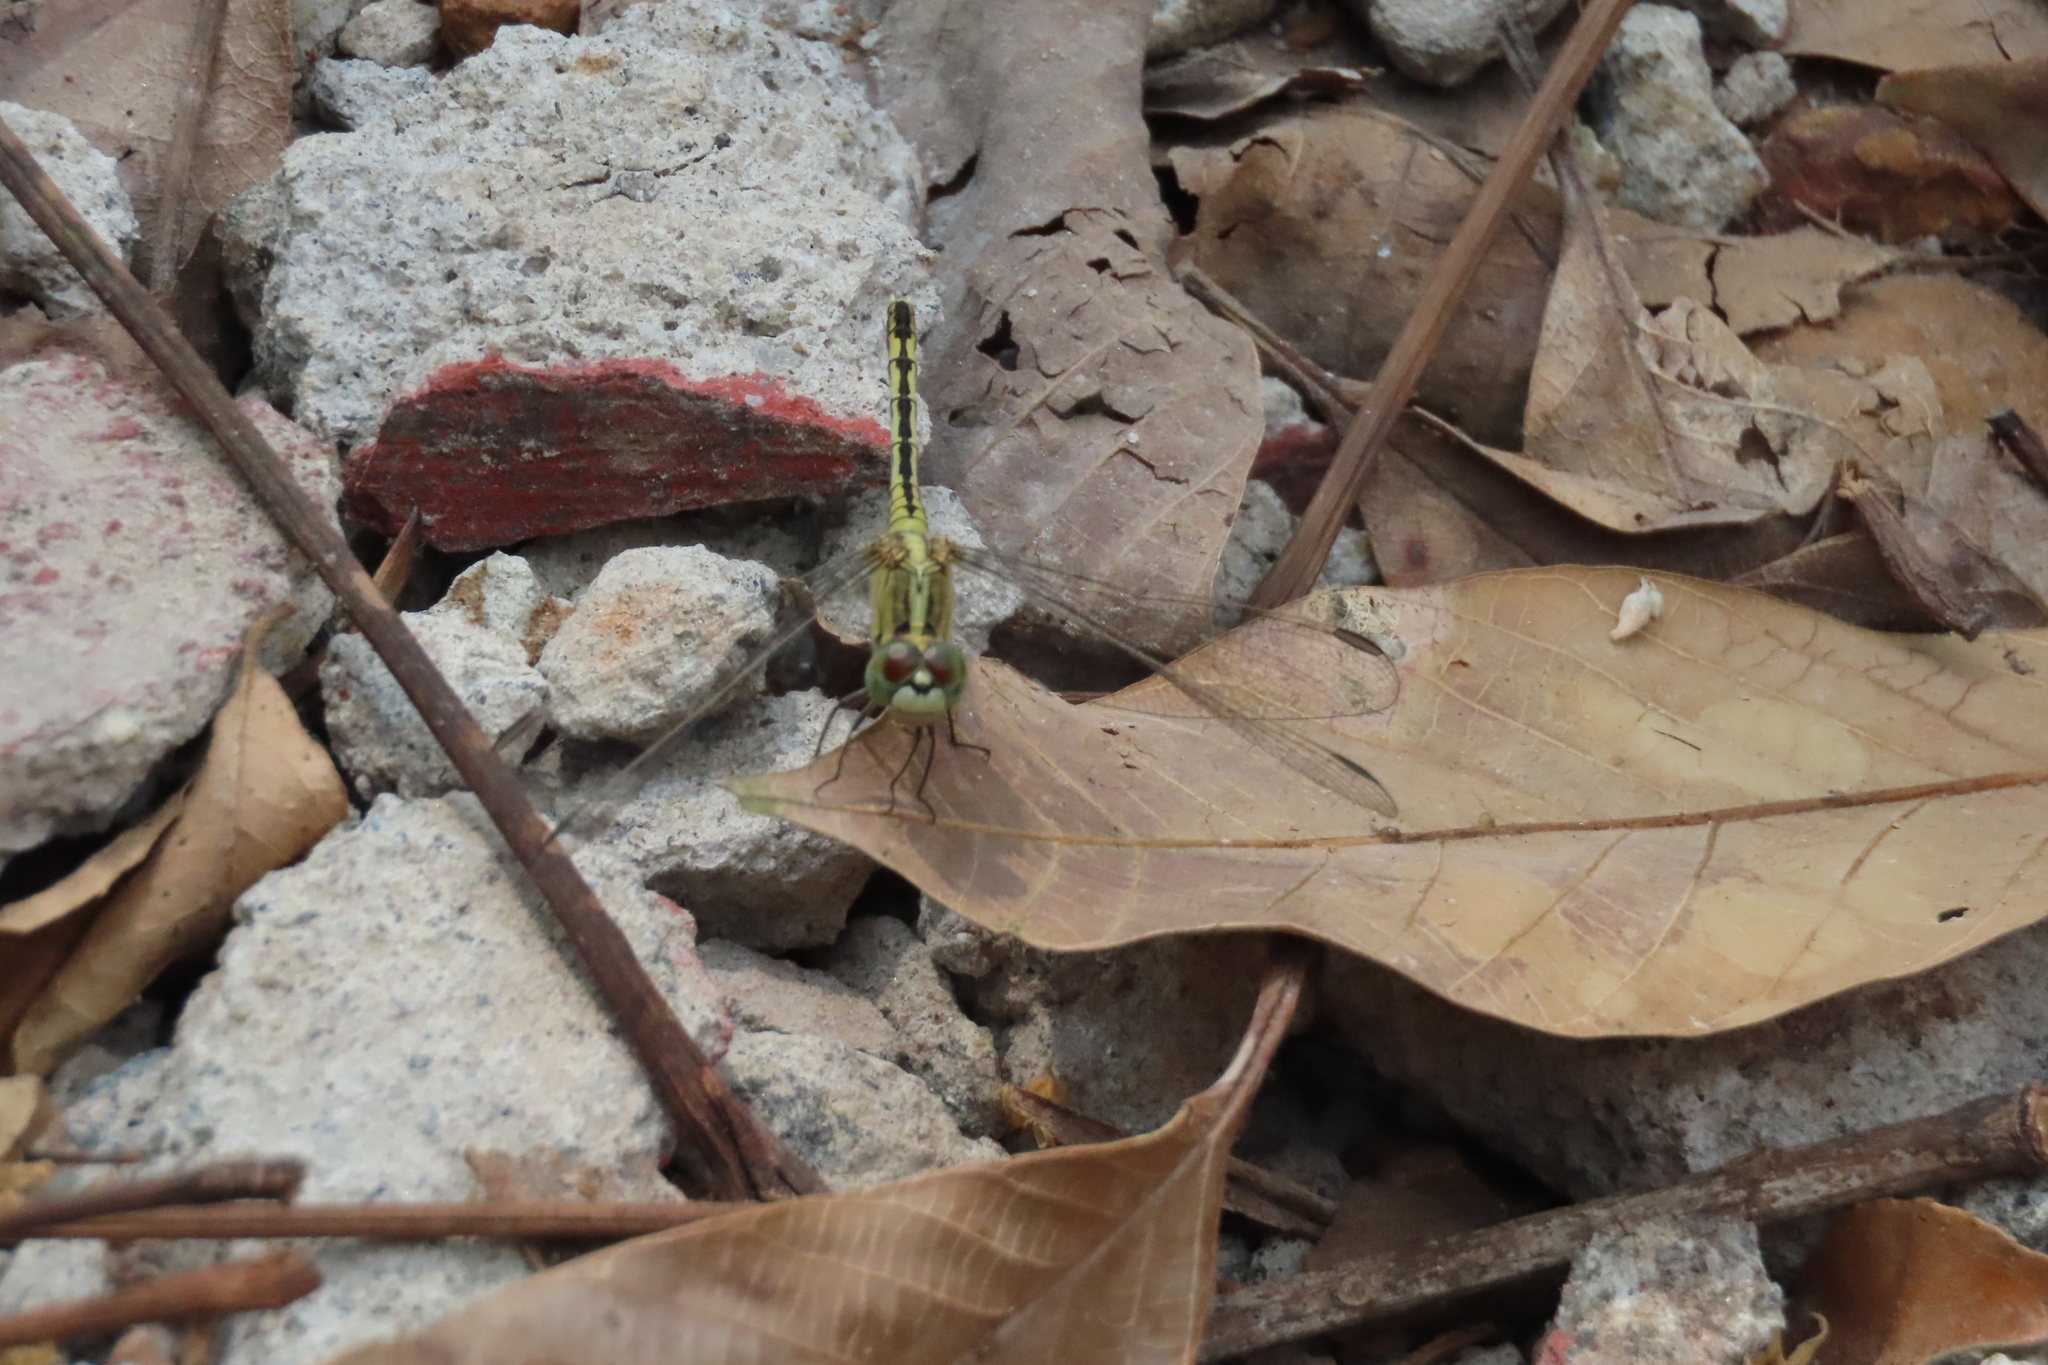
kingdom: Animalia
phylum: Arthropoda
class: Insecta
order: Odonata
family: Libellulidae
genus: Diplacodes
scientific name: Diplacodes trivialis
